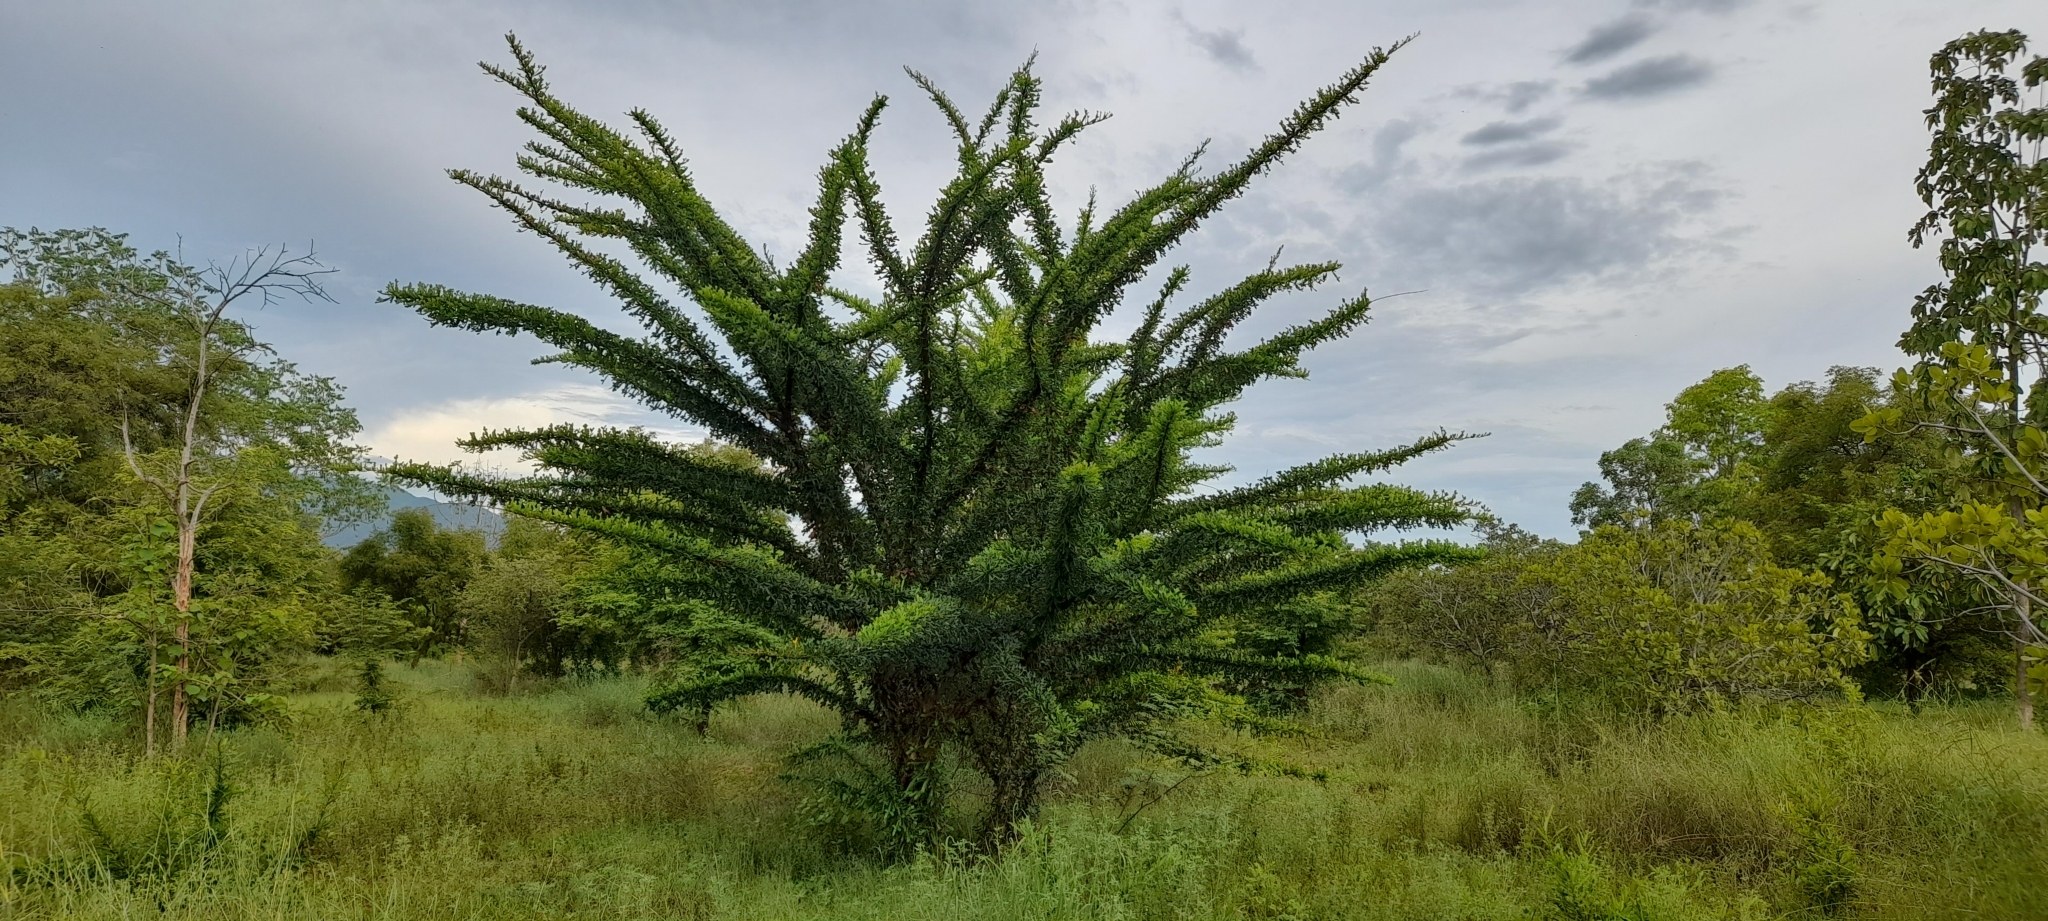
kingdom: Plantae
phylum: Tracheophyta
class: Magnoliopsida
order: Lamiales
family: Bignoniaceae
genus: Crescentia
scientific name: Crescentia cujete
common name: Calabash
